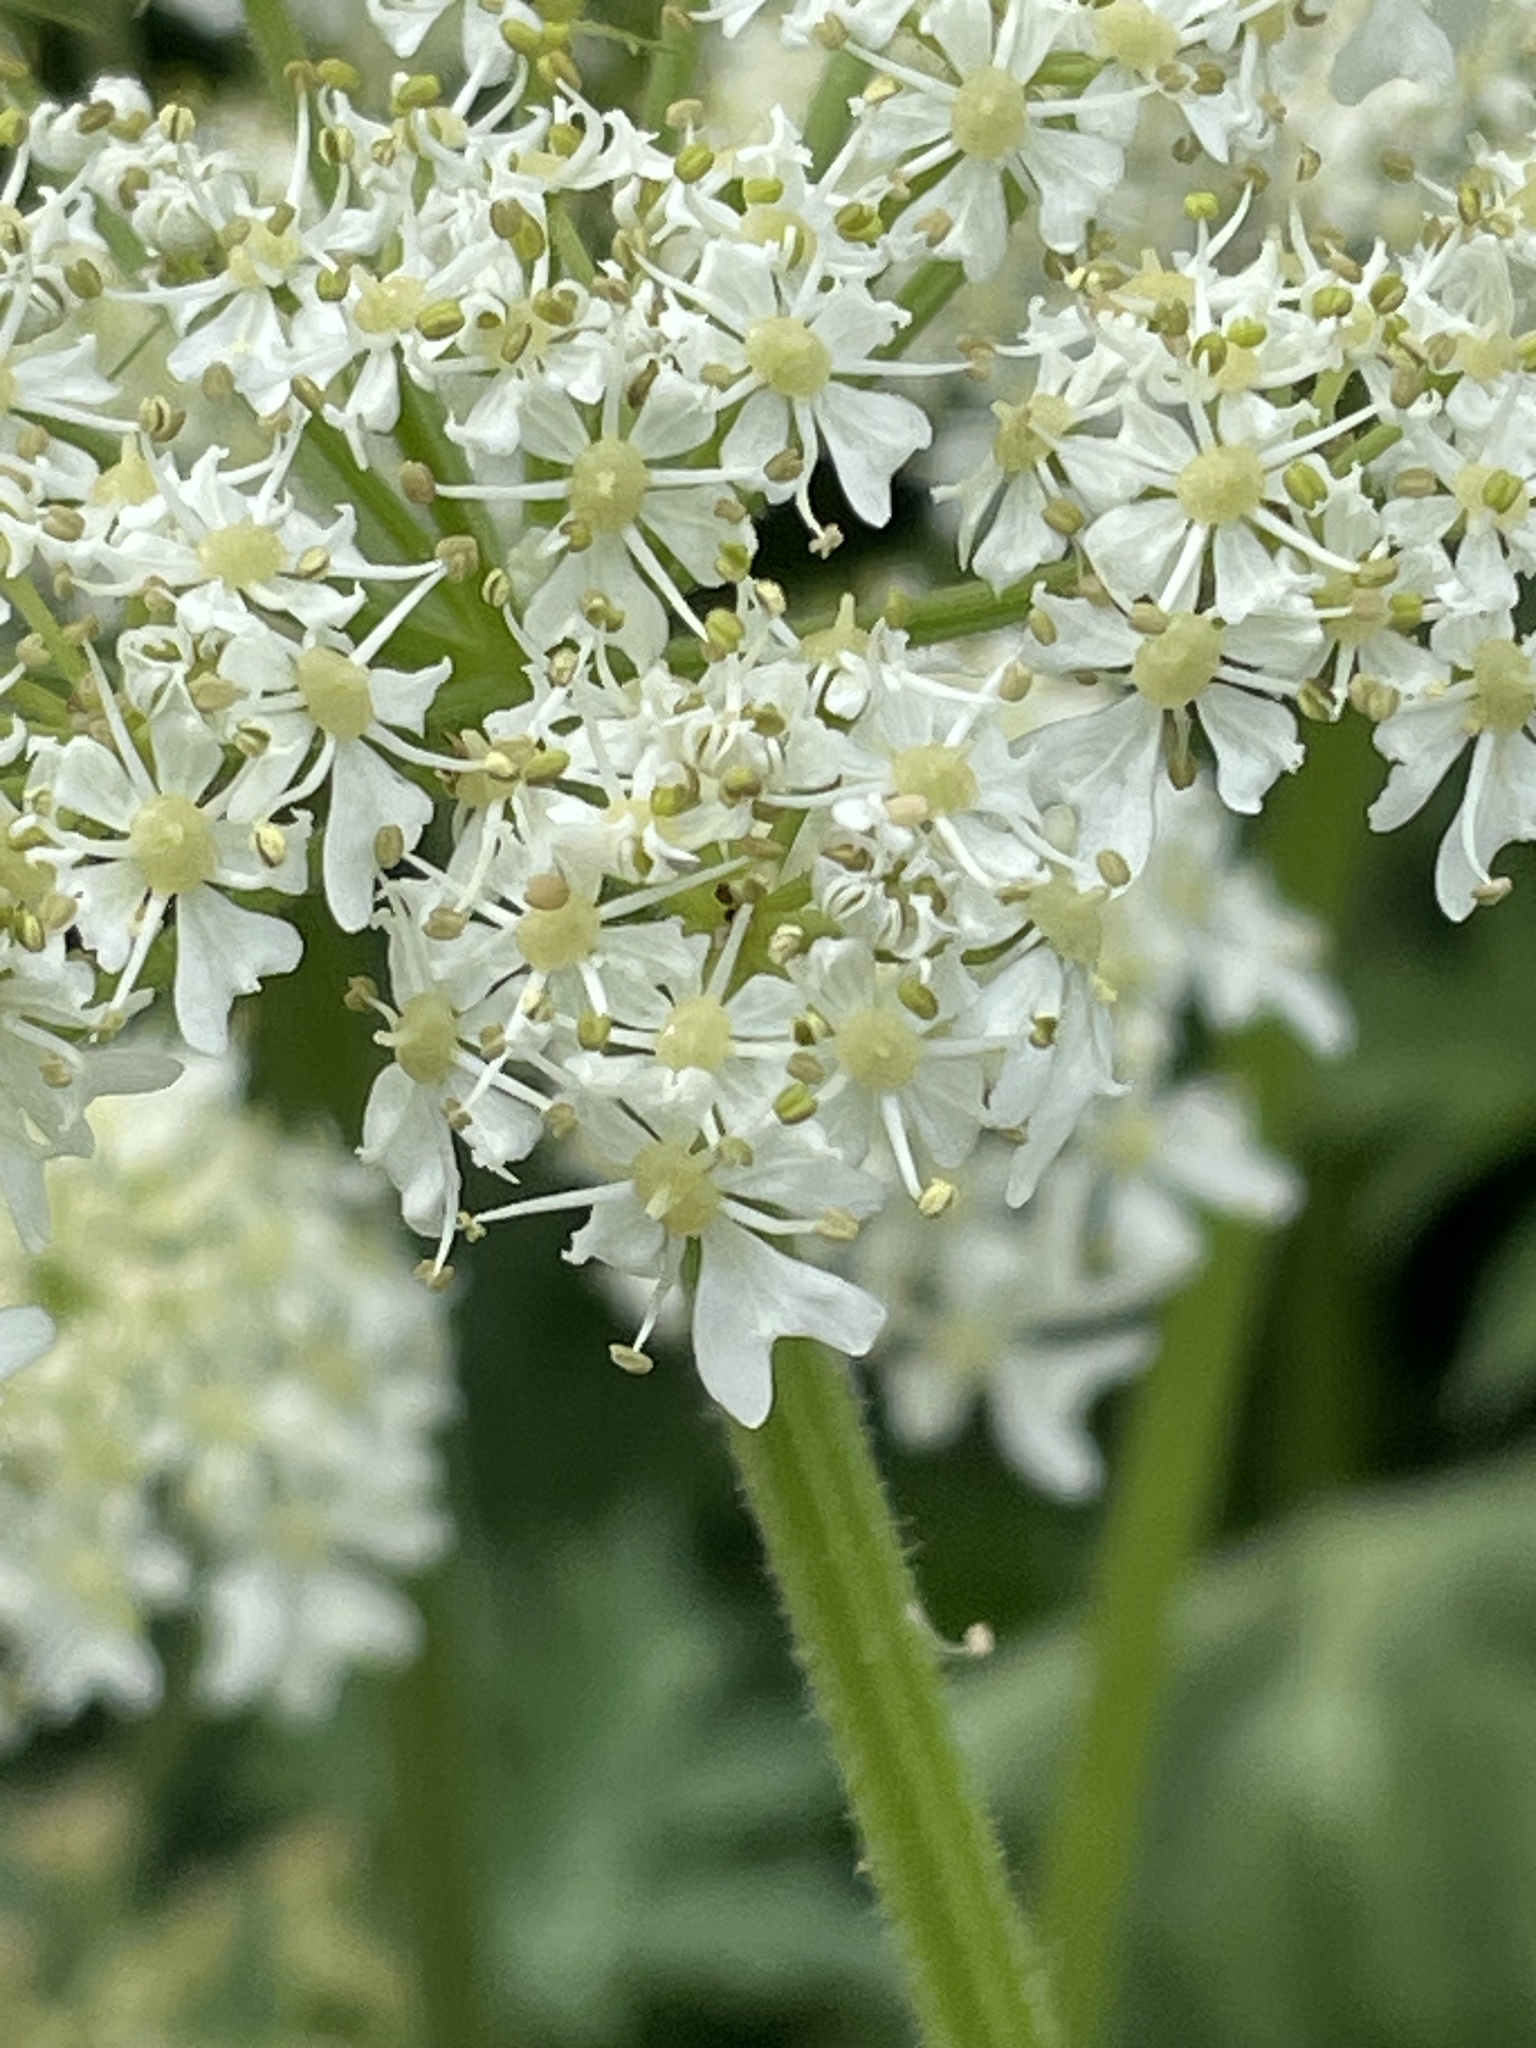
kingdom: Plantae
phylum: Tracheophyta
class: Magnoliopsida
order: Apiales
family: Apiaceae
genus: Heracleum
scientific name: Heracleum sphondylium
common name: Hogweed
